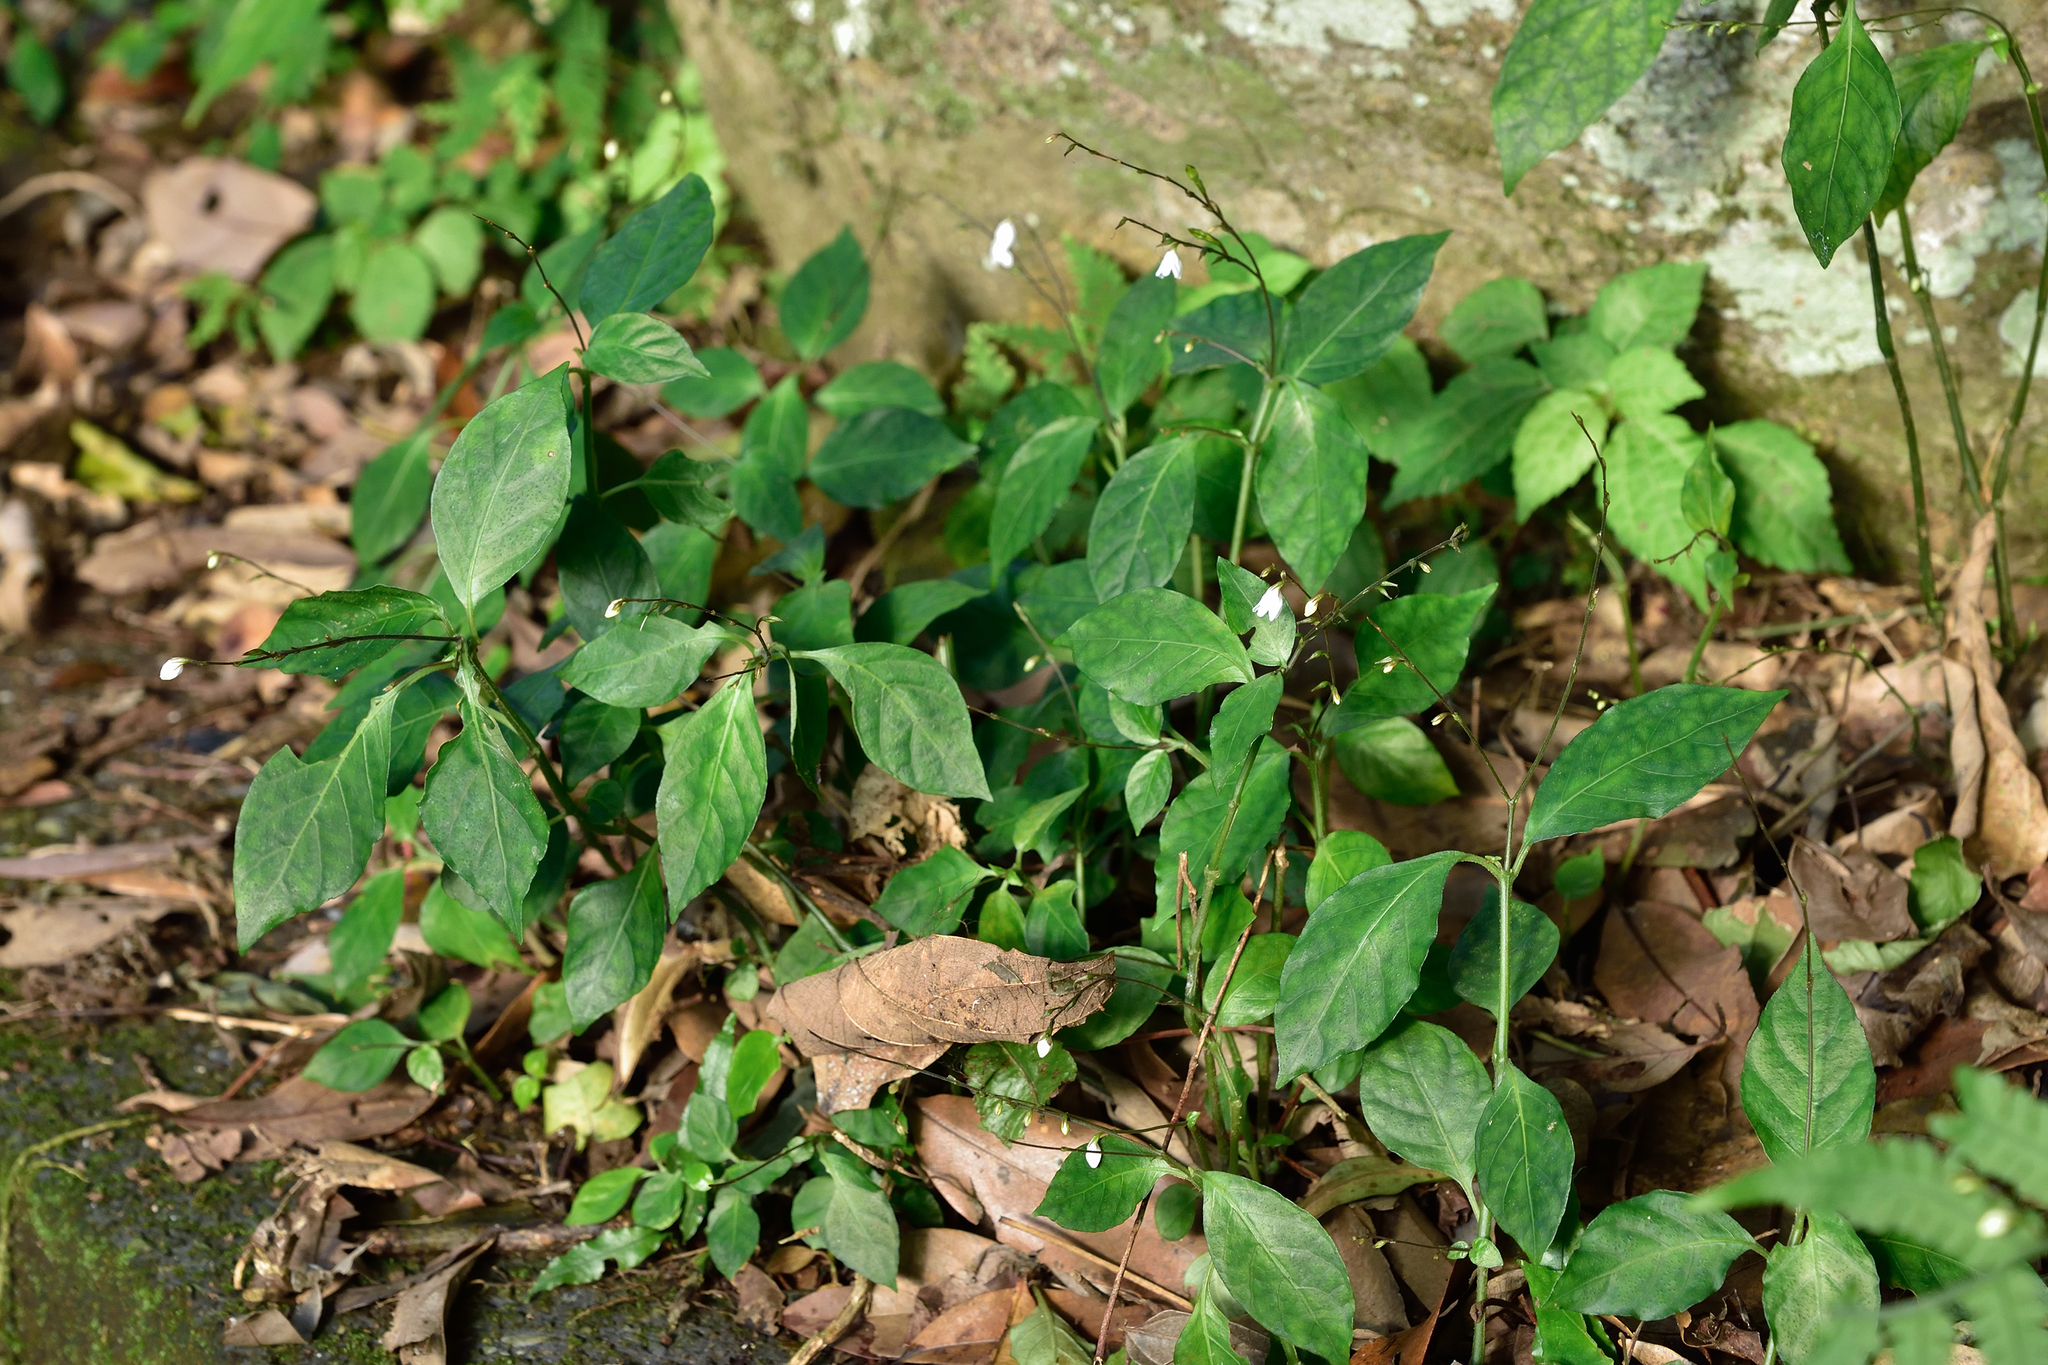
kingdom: Plantae
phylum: Tracheophyta
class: Magnoliopsida
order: Lamiales
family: Acanthaceae
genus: Codonacanthus
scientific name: Codonacanthus pauciflorus
